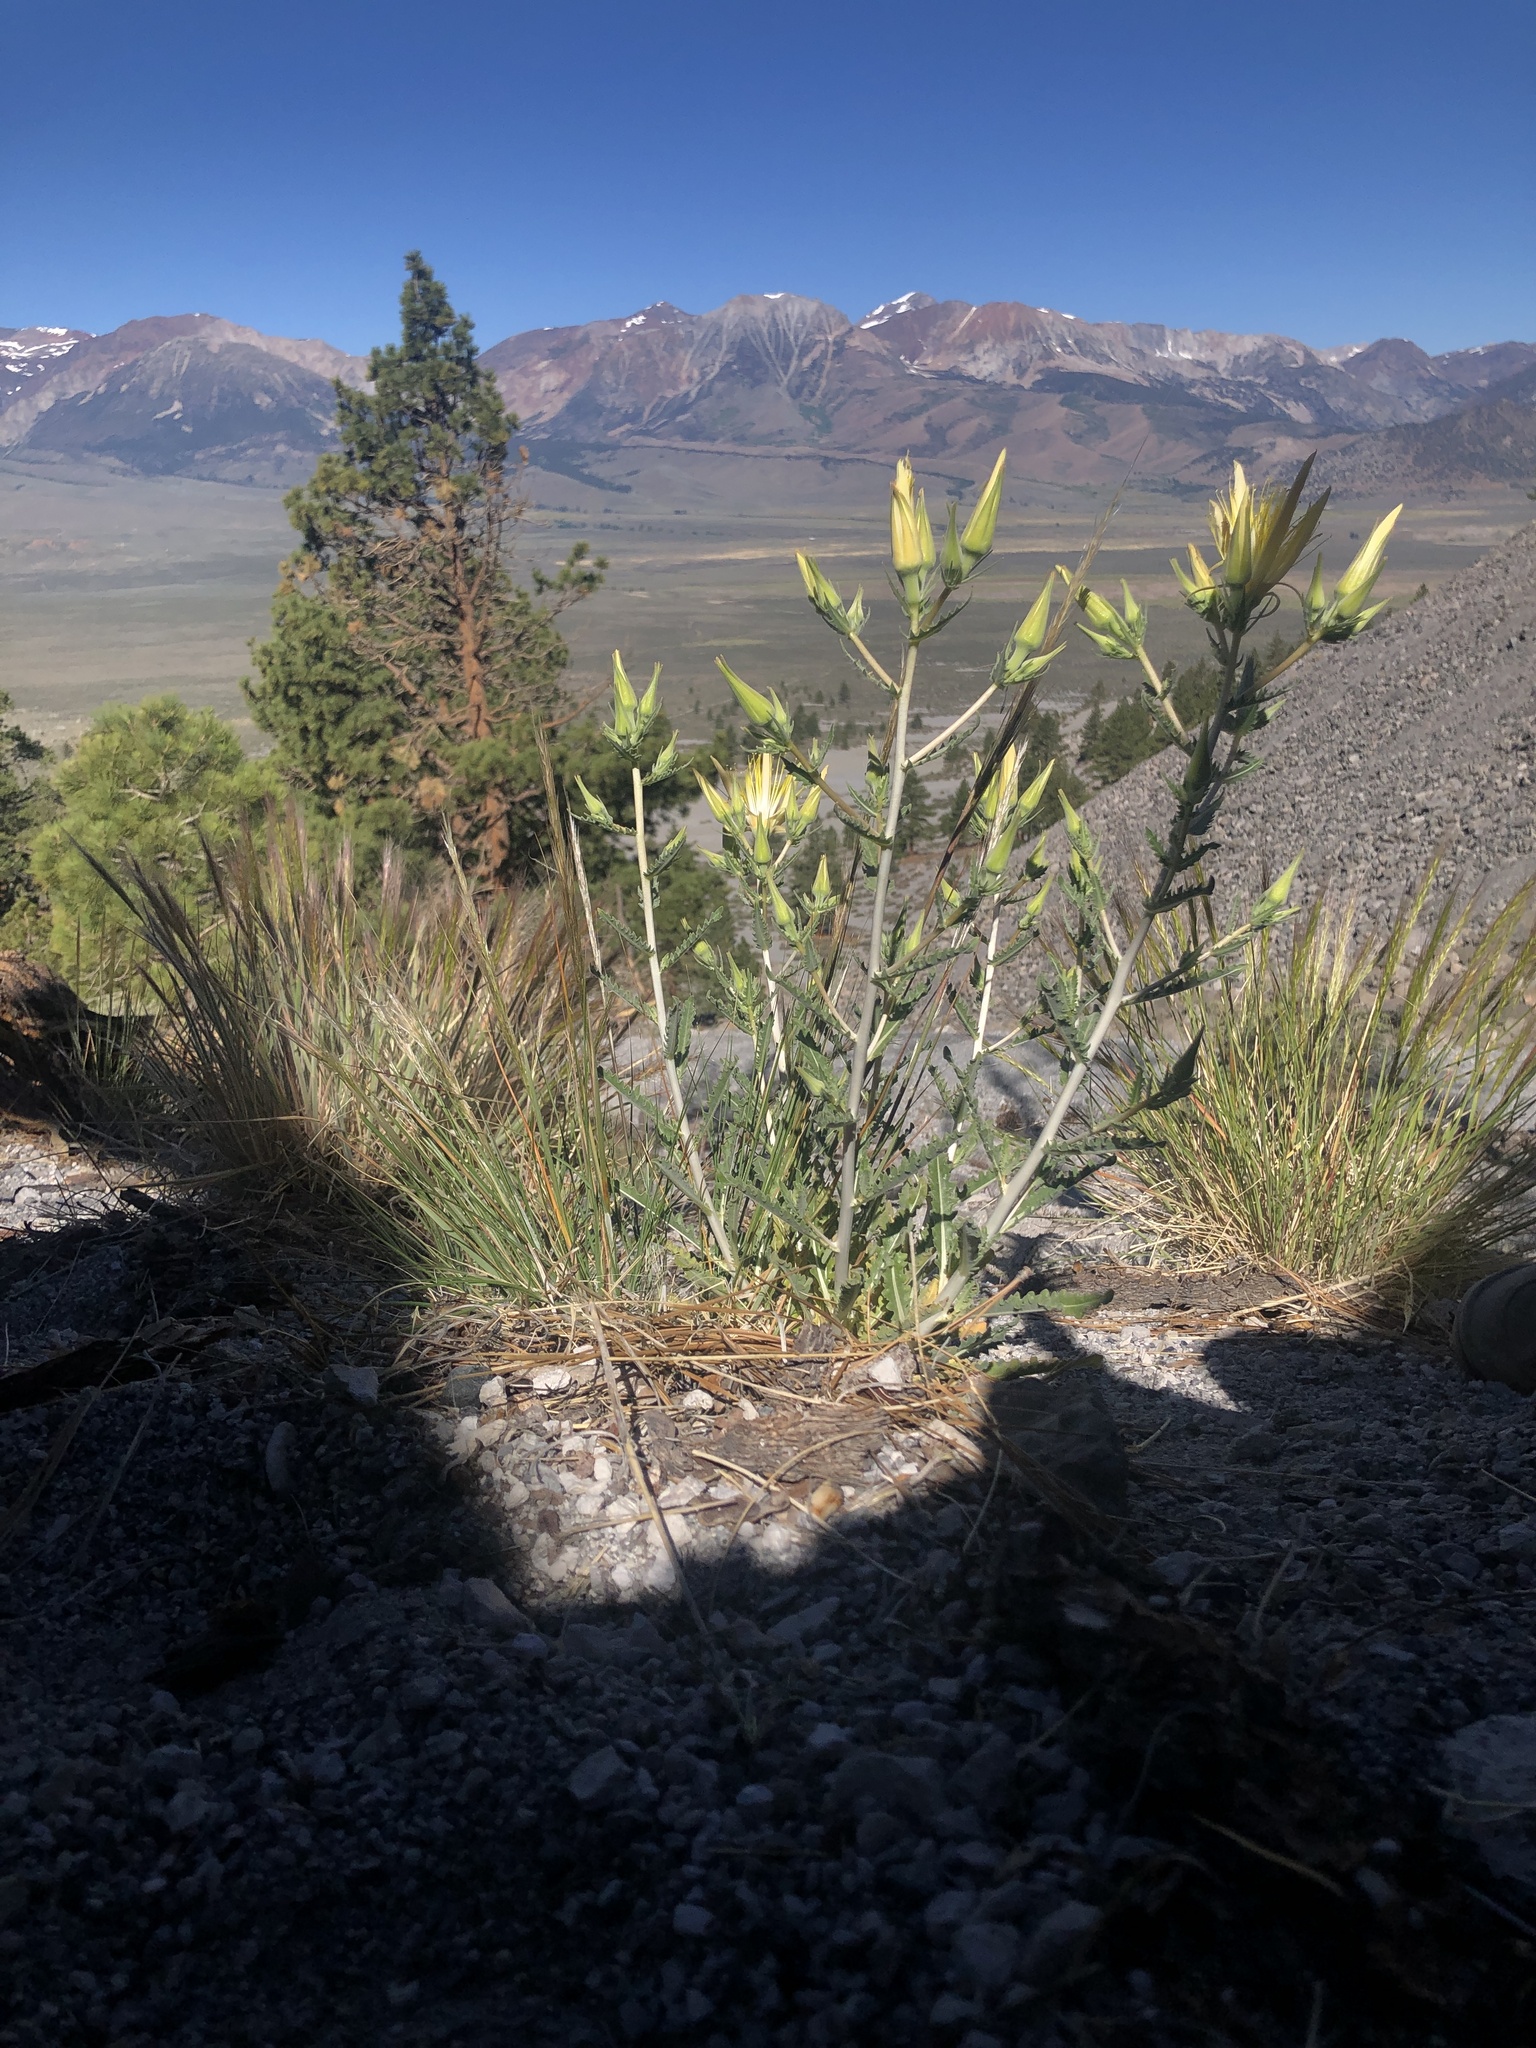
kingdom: Plantae
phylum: Tracheophyta
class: Magnoliopsida
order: Cornales
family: Loasaceae
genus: Mentzelia
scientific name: Mentzelia laevicaulis
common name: Smooth-stem blazingstar
